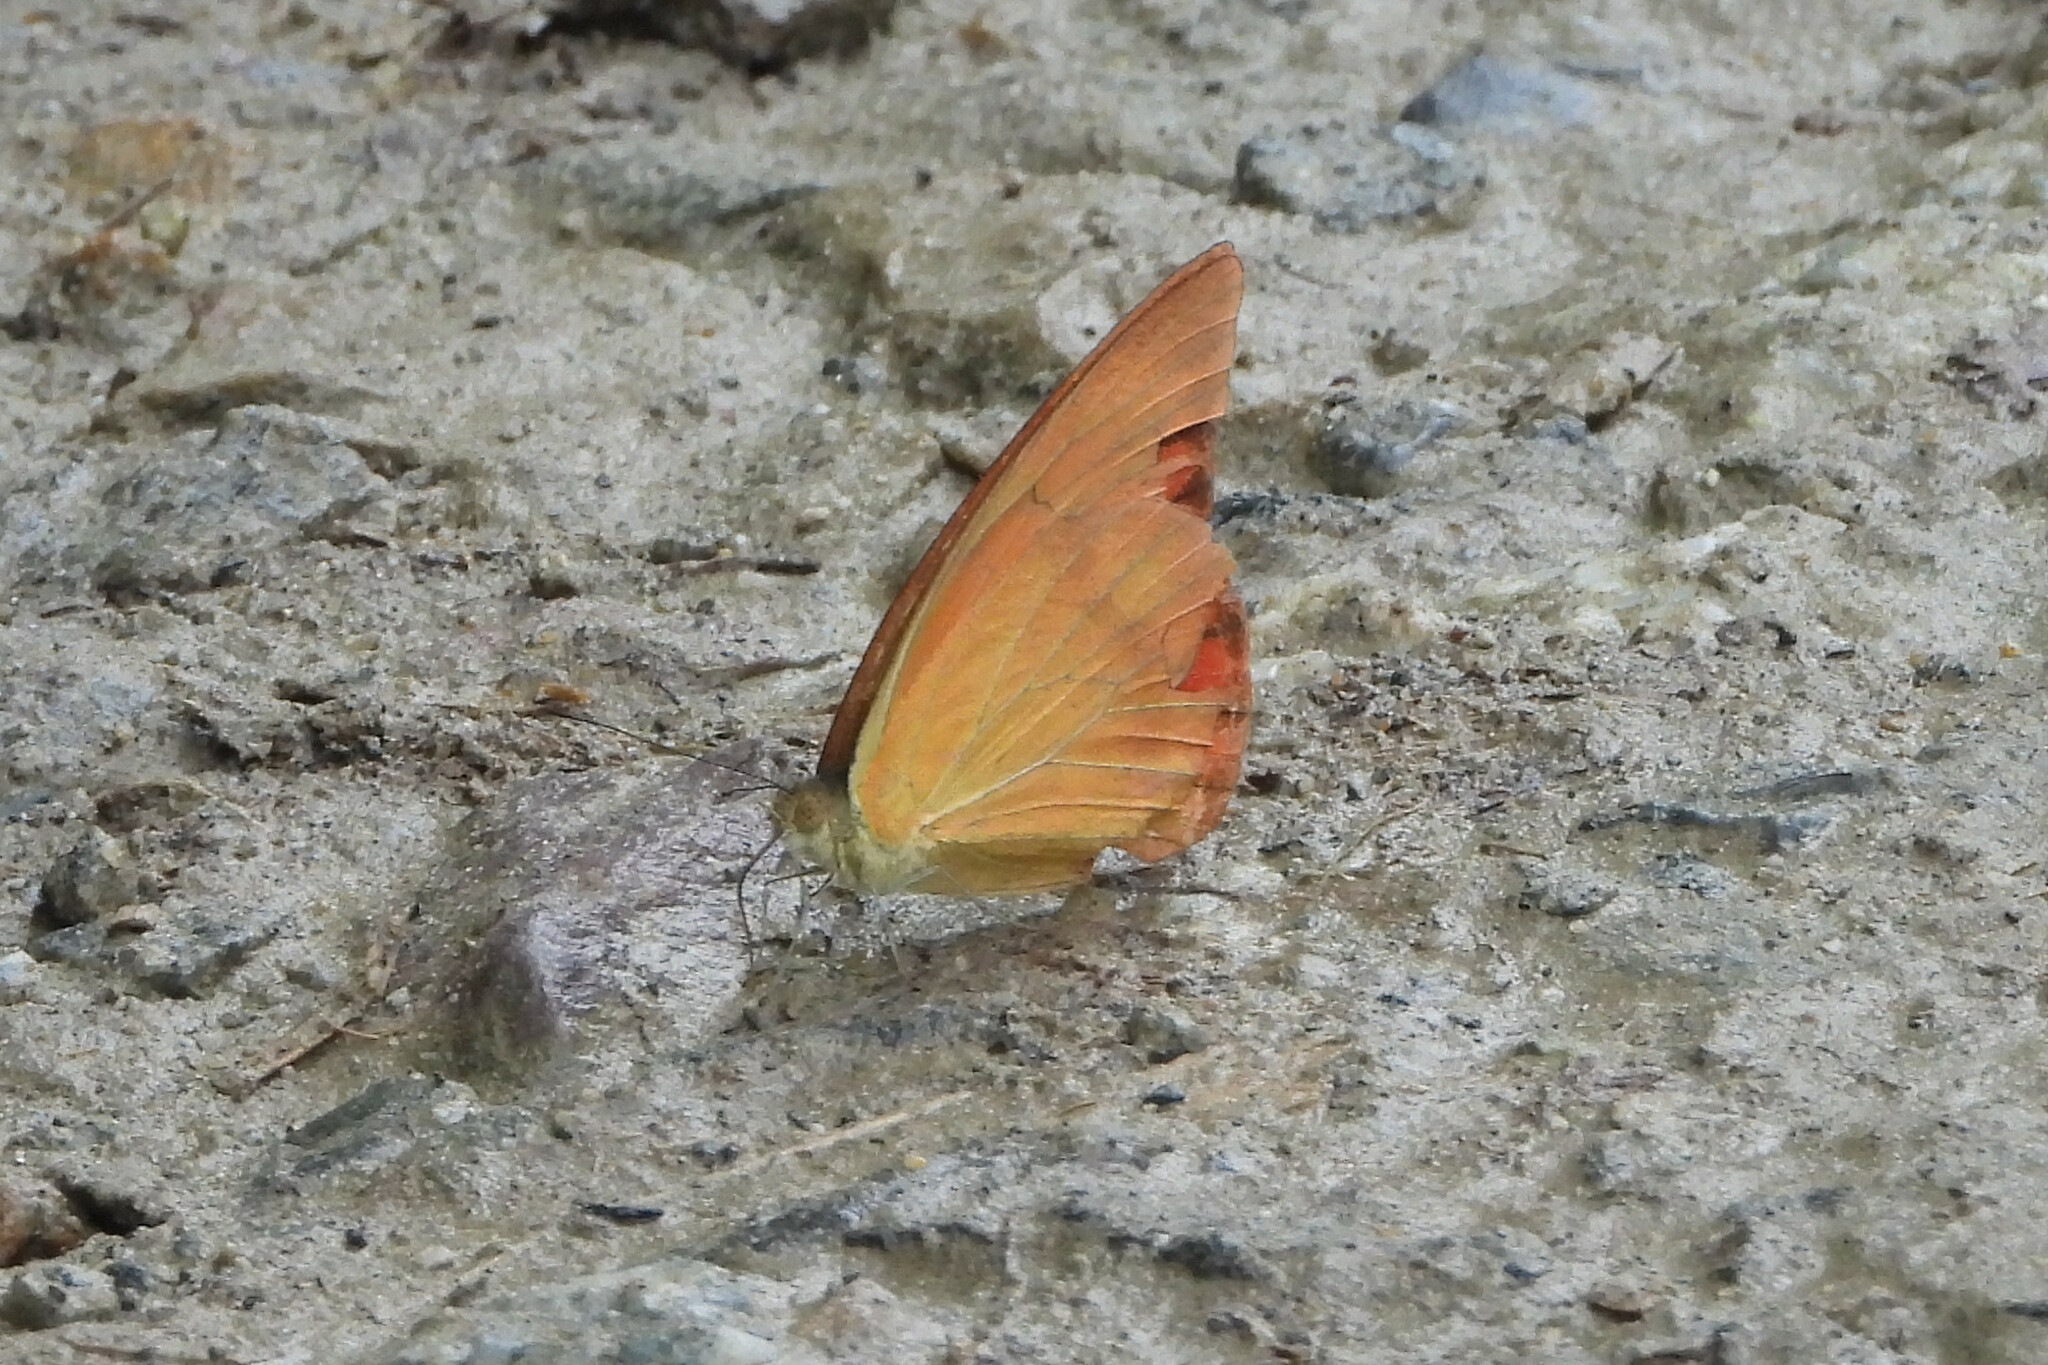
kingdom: Animalia
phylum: Arthropoda
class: Insecta
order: Lepidoptera
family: Pieridae
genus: Appias
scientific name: Appias galba
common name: Indian orange albatross
